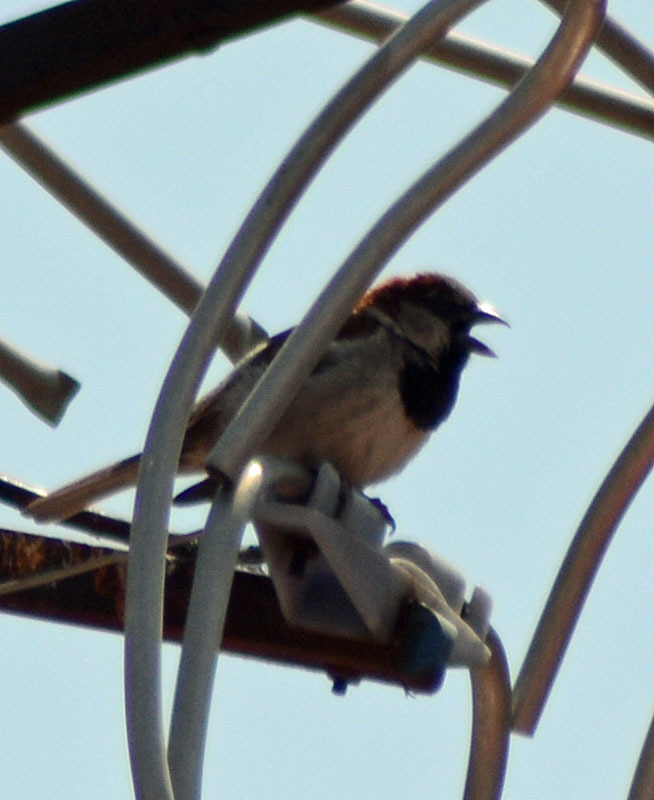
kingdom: Animalia
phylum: Chordata
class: Aves
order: Passeriformes
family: Passeridae
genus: Passer
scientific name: Passer domesticus
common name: House sparrow
